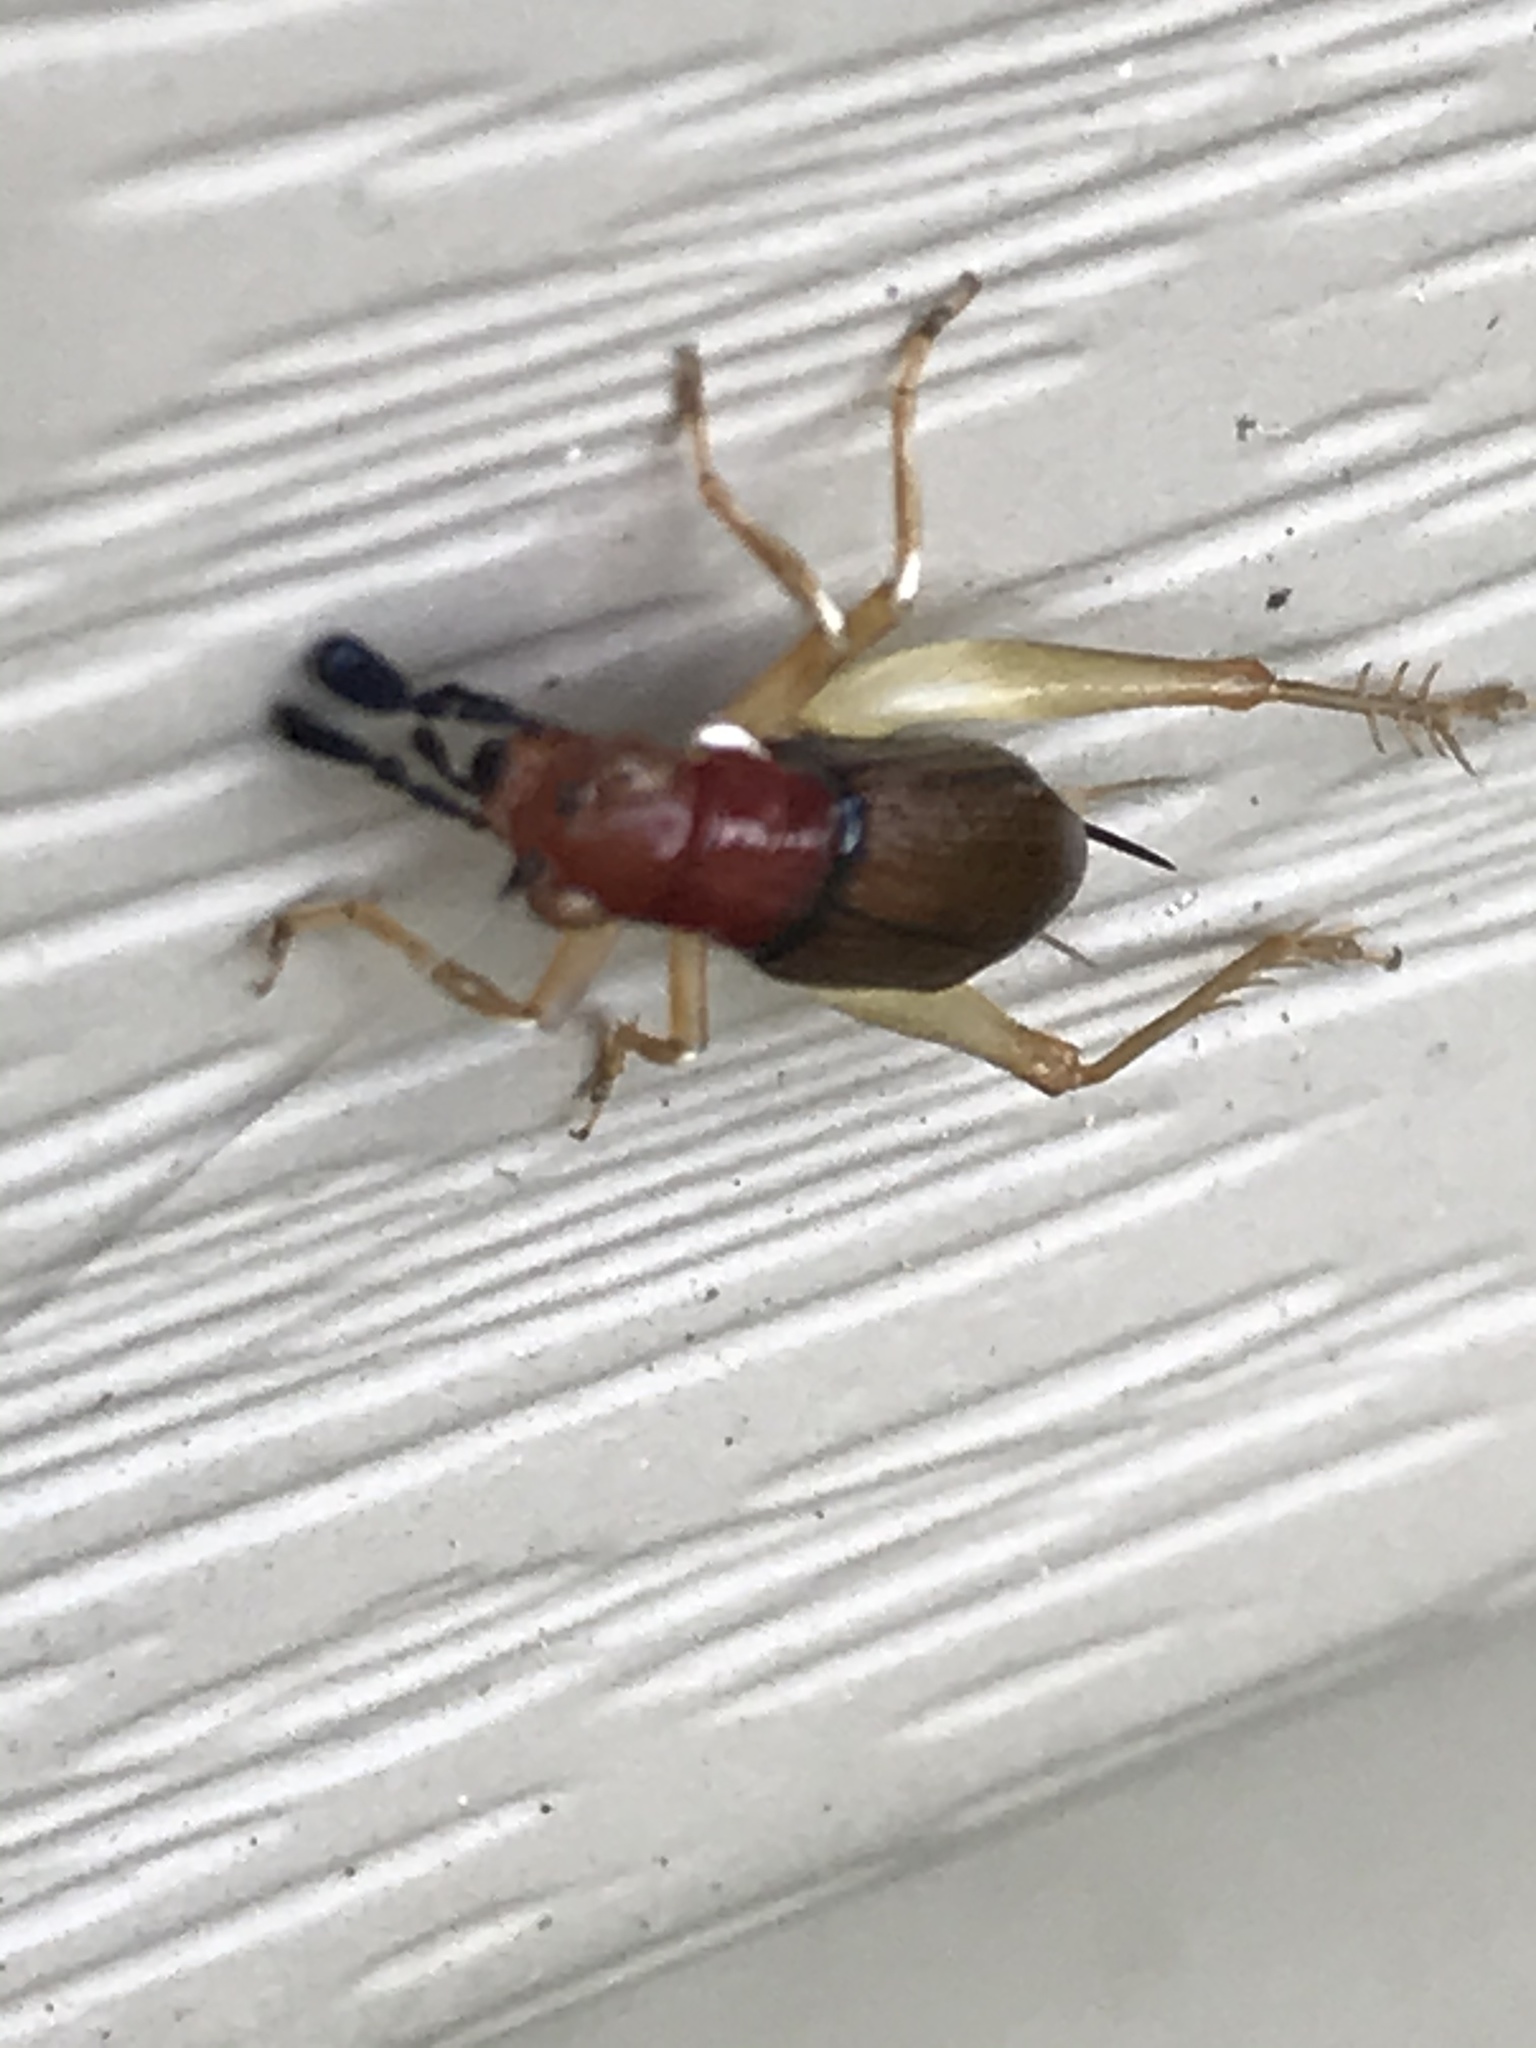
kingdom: Animalia
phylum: Arthropoda
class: Insecta
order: Orthoptera
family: Trigonidiidae
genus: Phyllopalpus
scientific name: Phyllopalpus pulchellus
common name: Handsome trig
